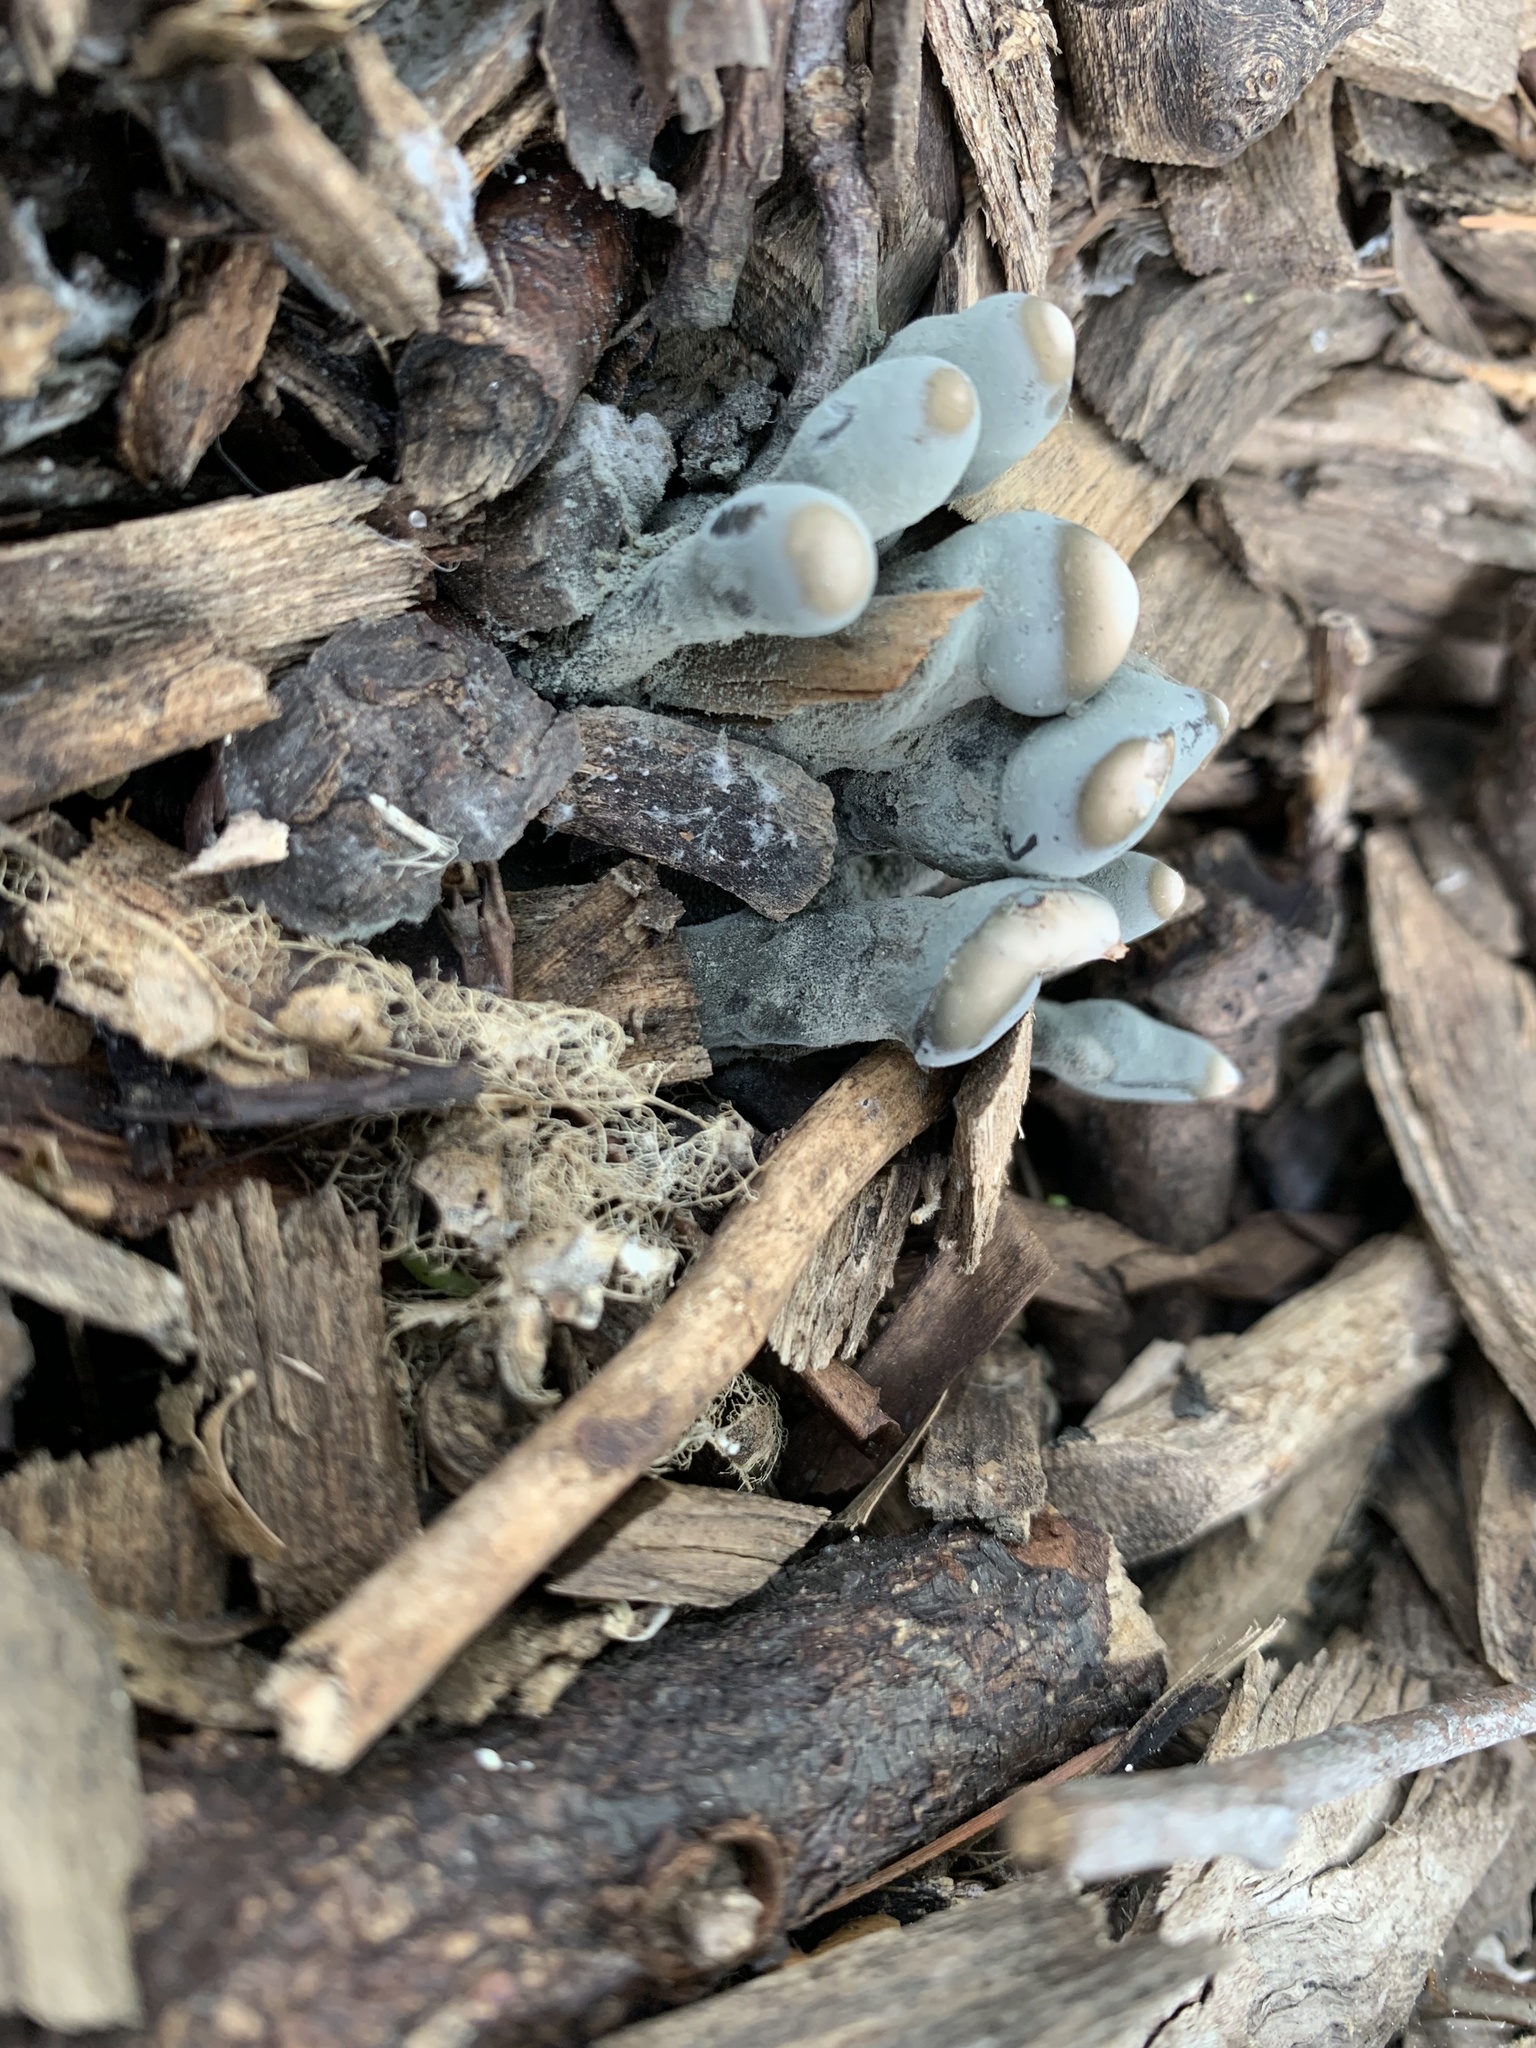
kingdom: Fungi
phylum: Ascomycota
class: Sordariomycetes
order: Xylariales
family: Xylariaceae
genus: Xylaria
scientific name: Xylaria polymorpha
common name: Dead man's fingers
